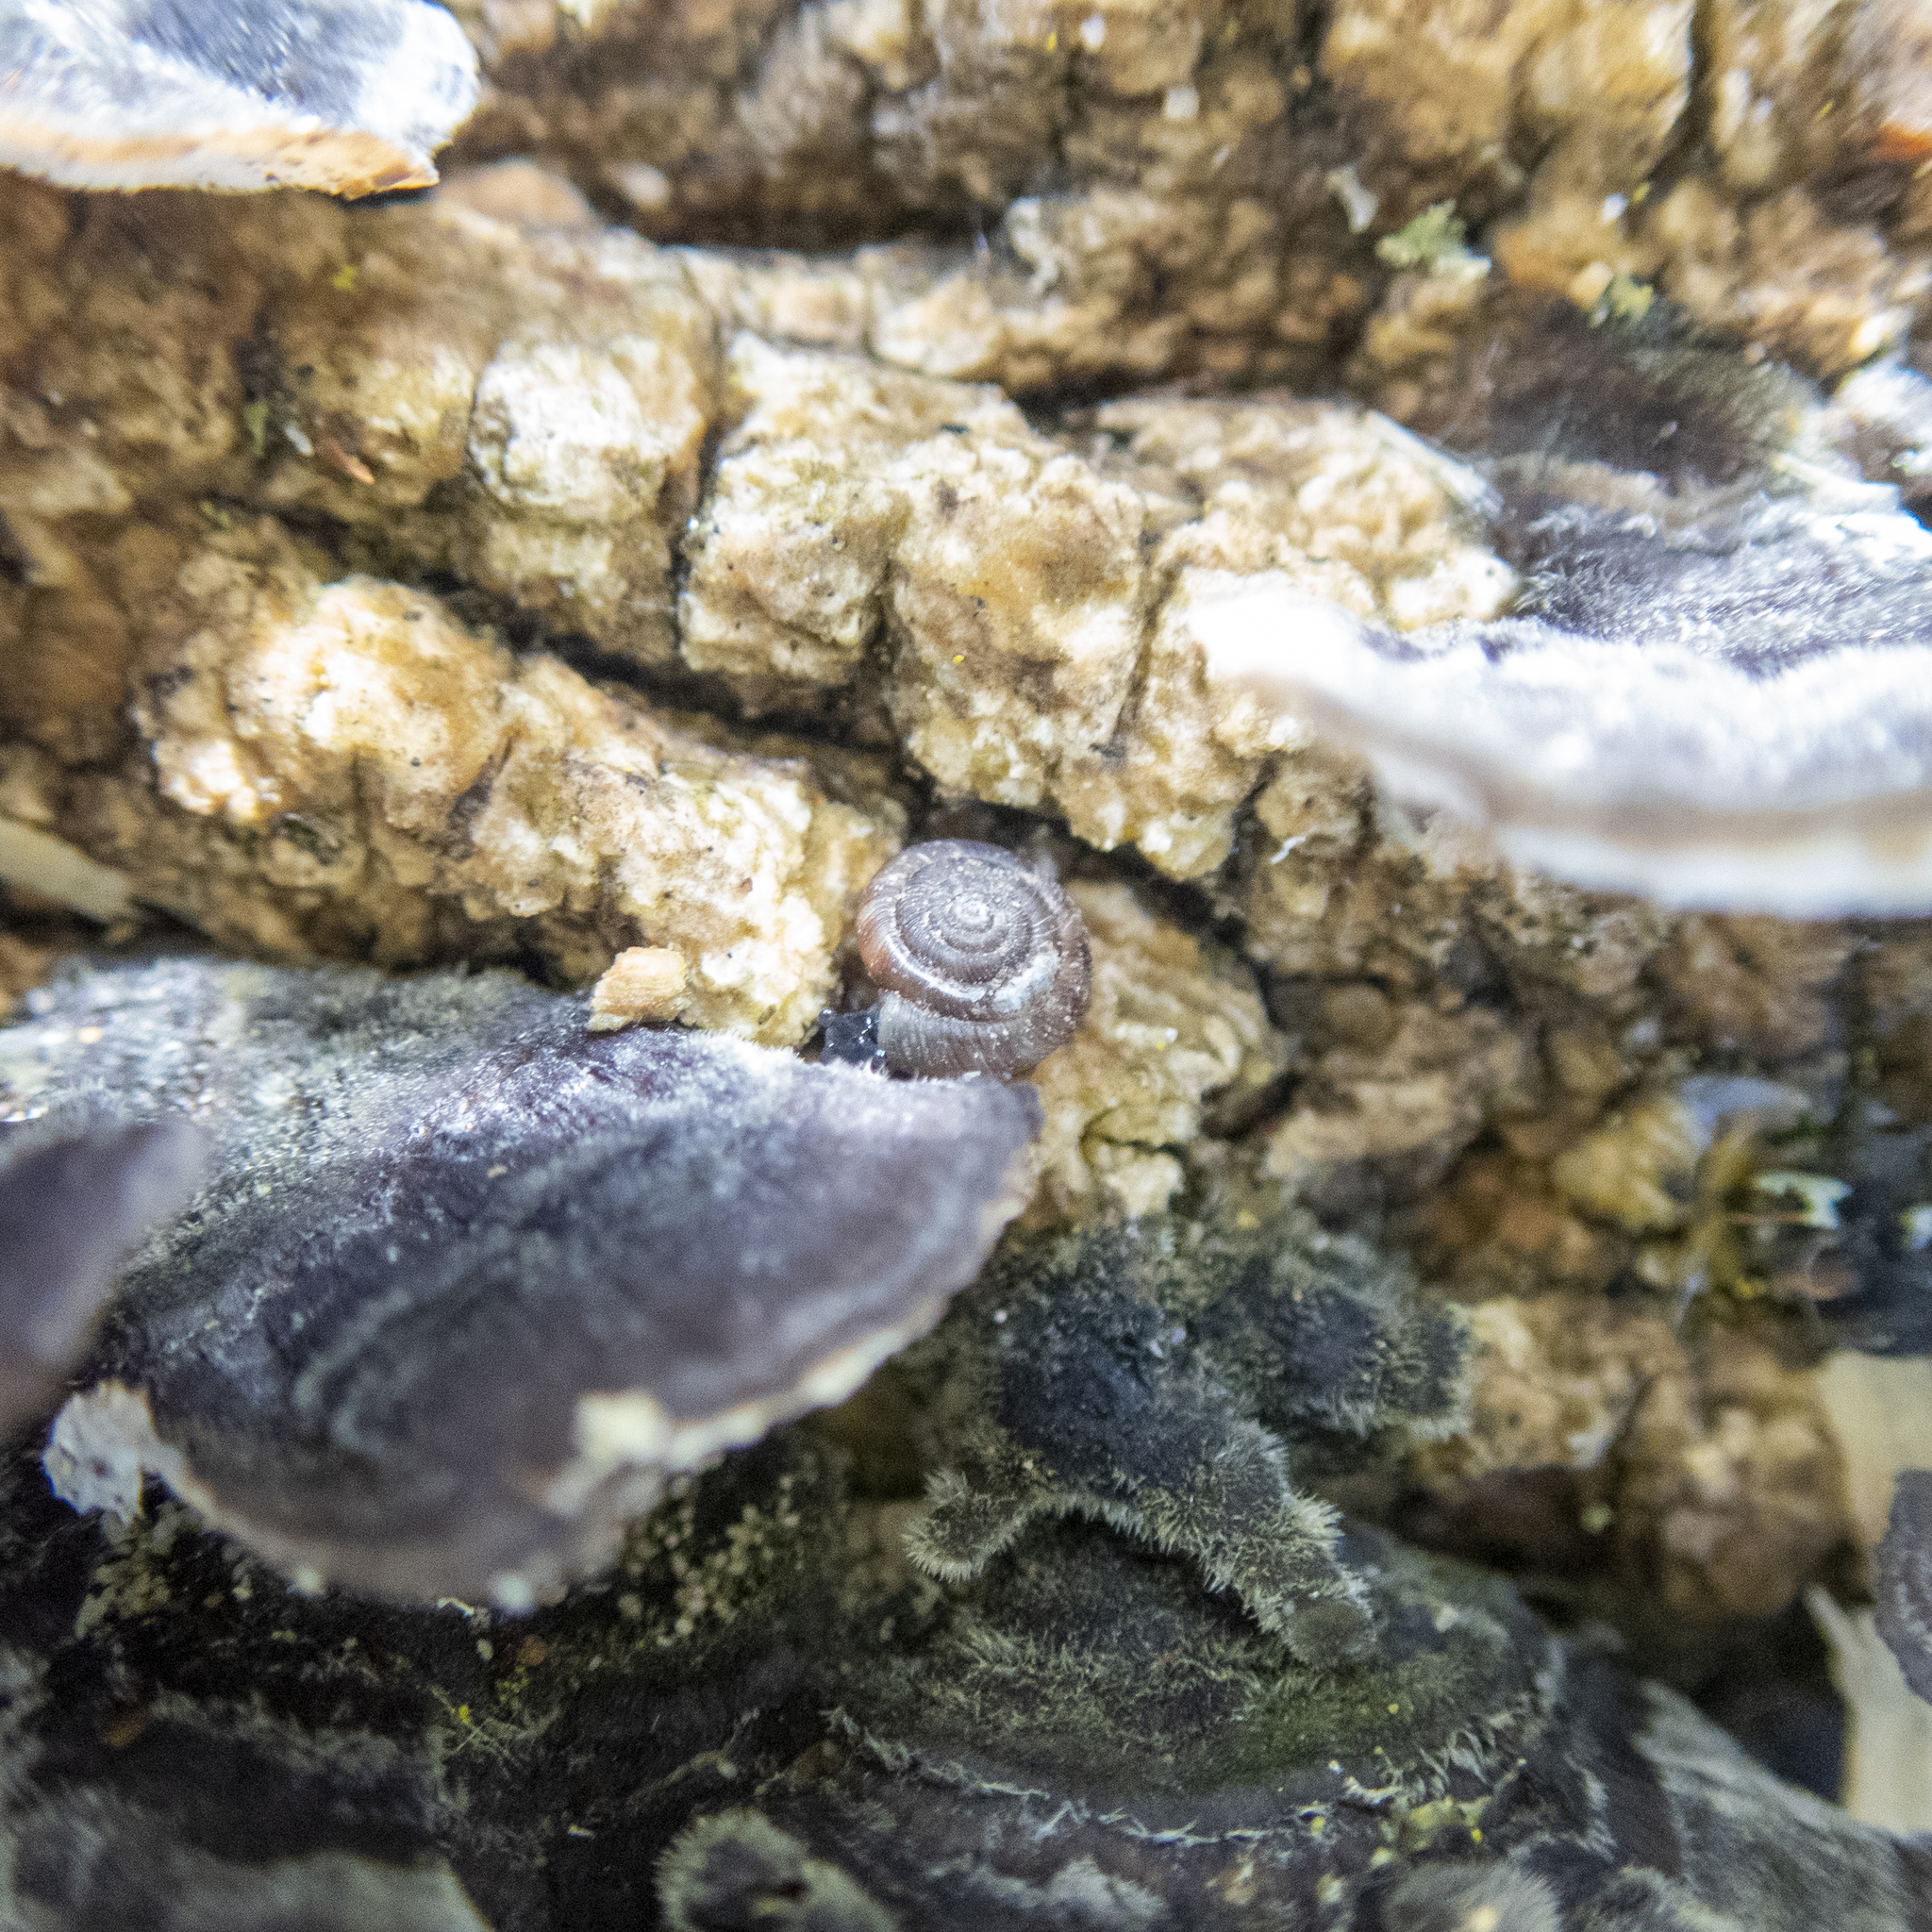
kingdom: Animalia
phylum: Mollusca
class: Gastropoda
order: Stylommatophora
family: Discidae
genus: Discus
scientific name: Discus rotundatus
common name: Rounded snail
